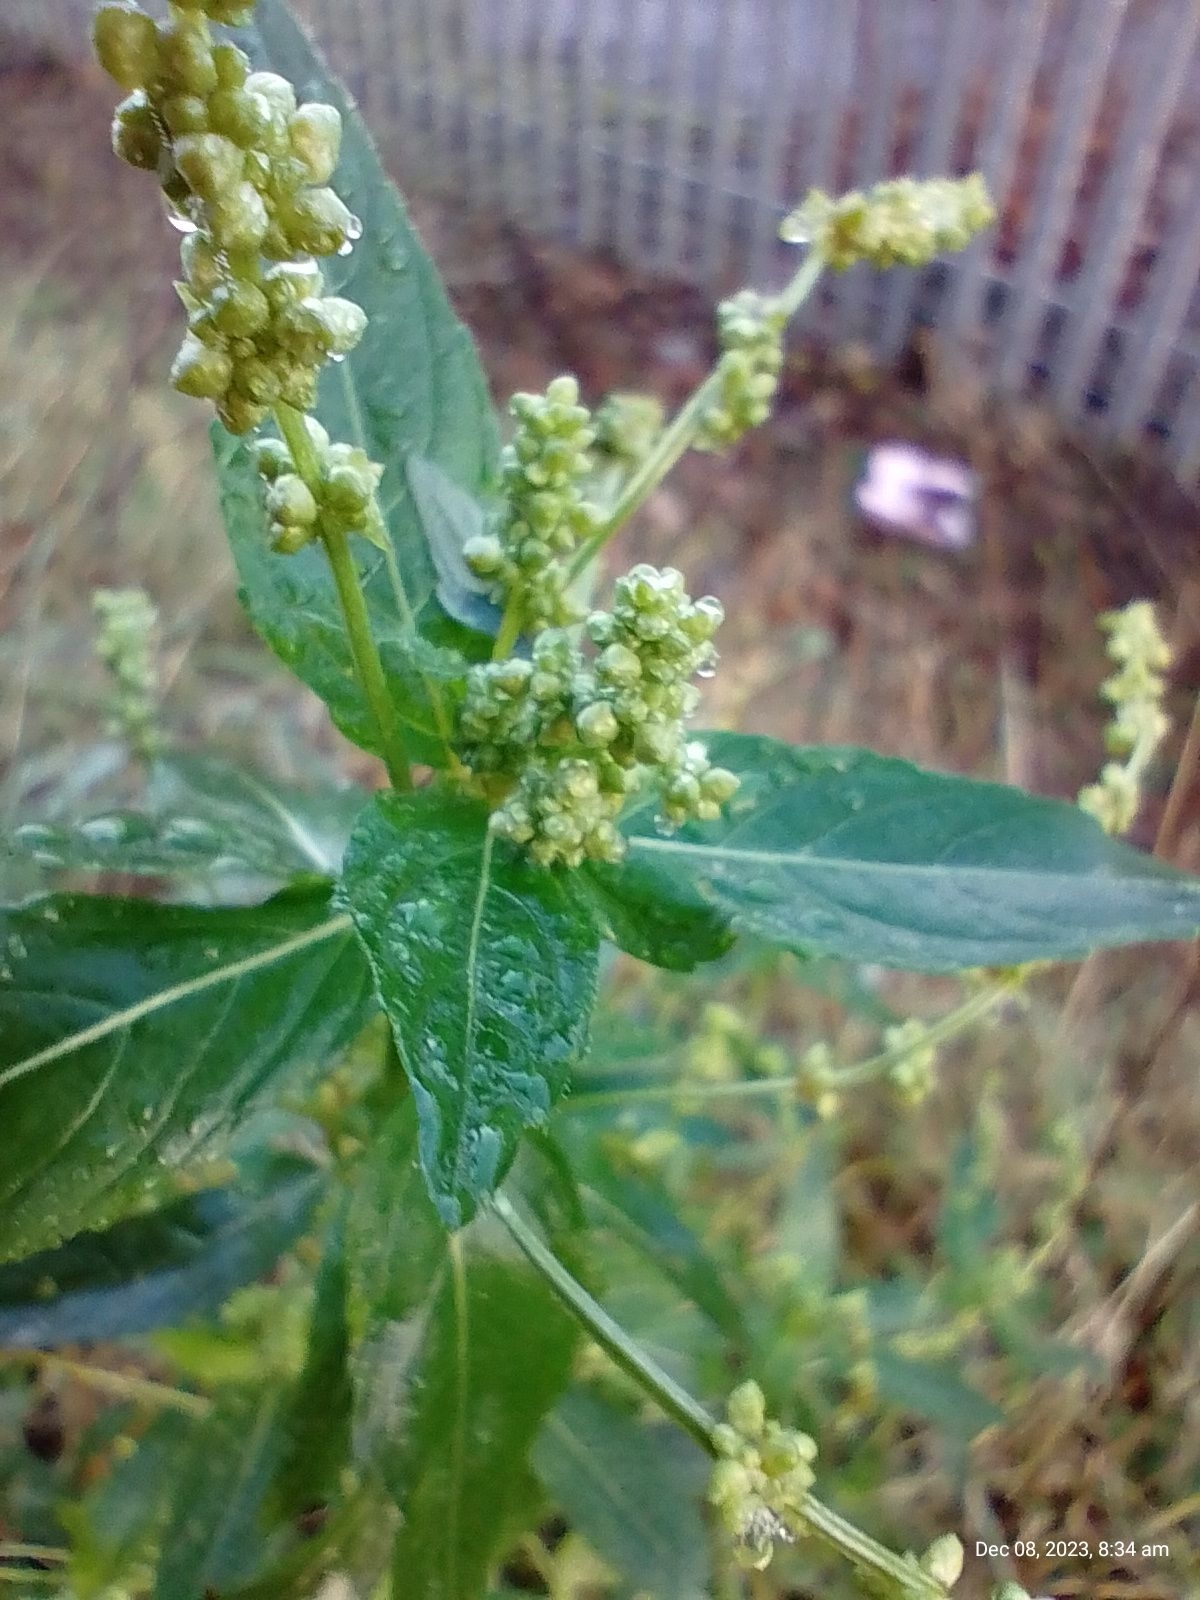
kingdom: Plantae
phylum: Tracheophyta
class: Magnoliopsida
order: Malpighiales
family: Euphorbiaceae
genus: Mercurialis
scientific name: Mercurialis annua
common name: Annual mercury
